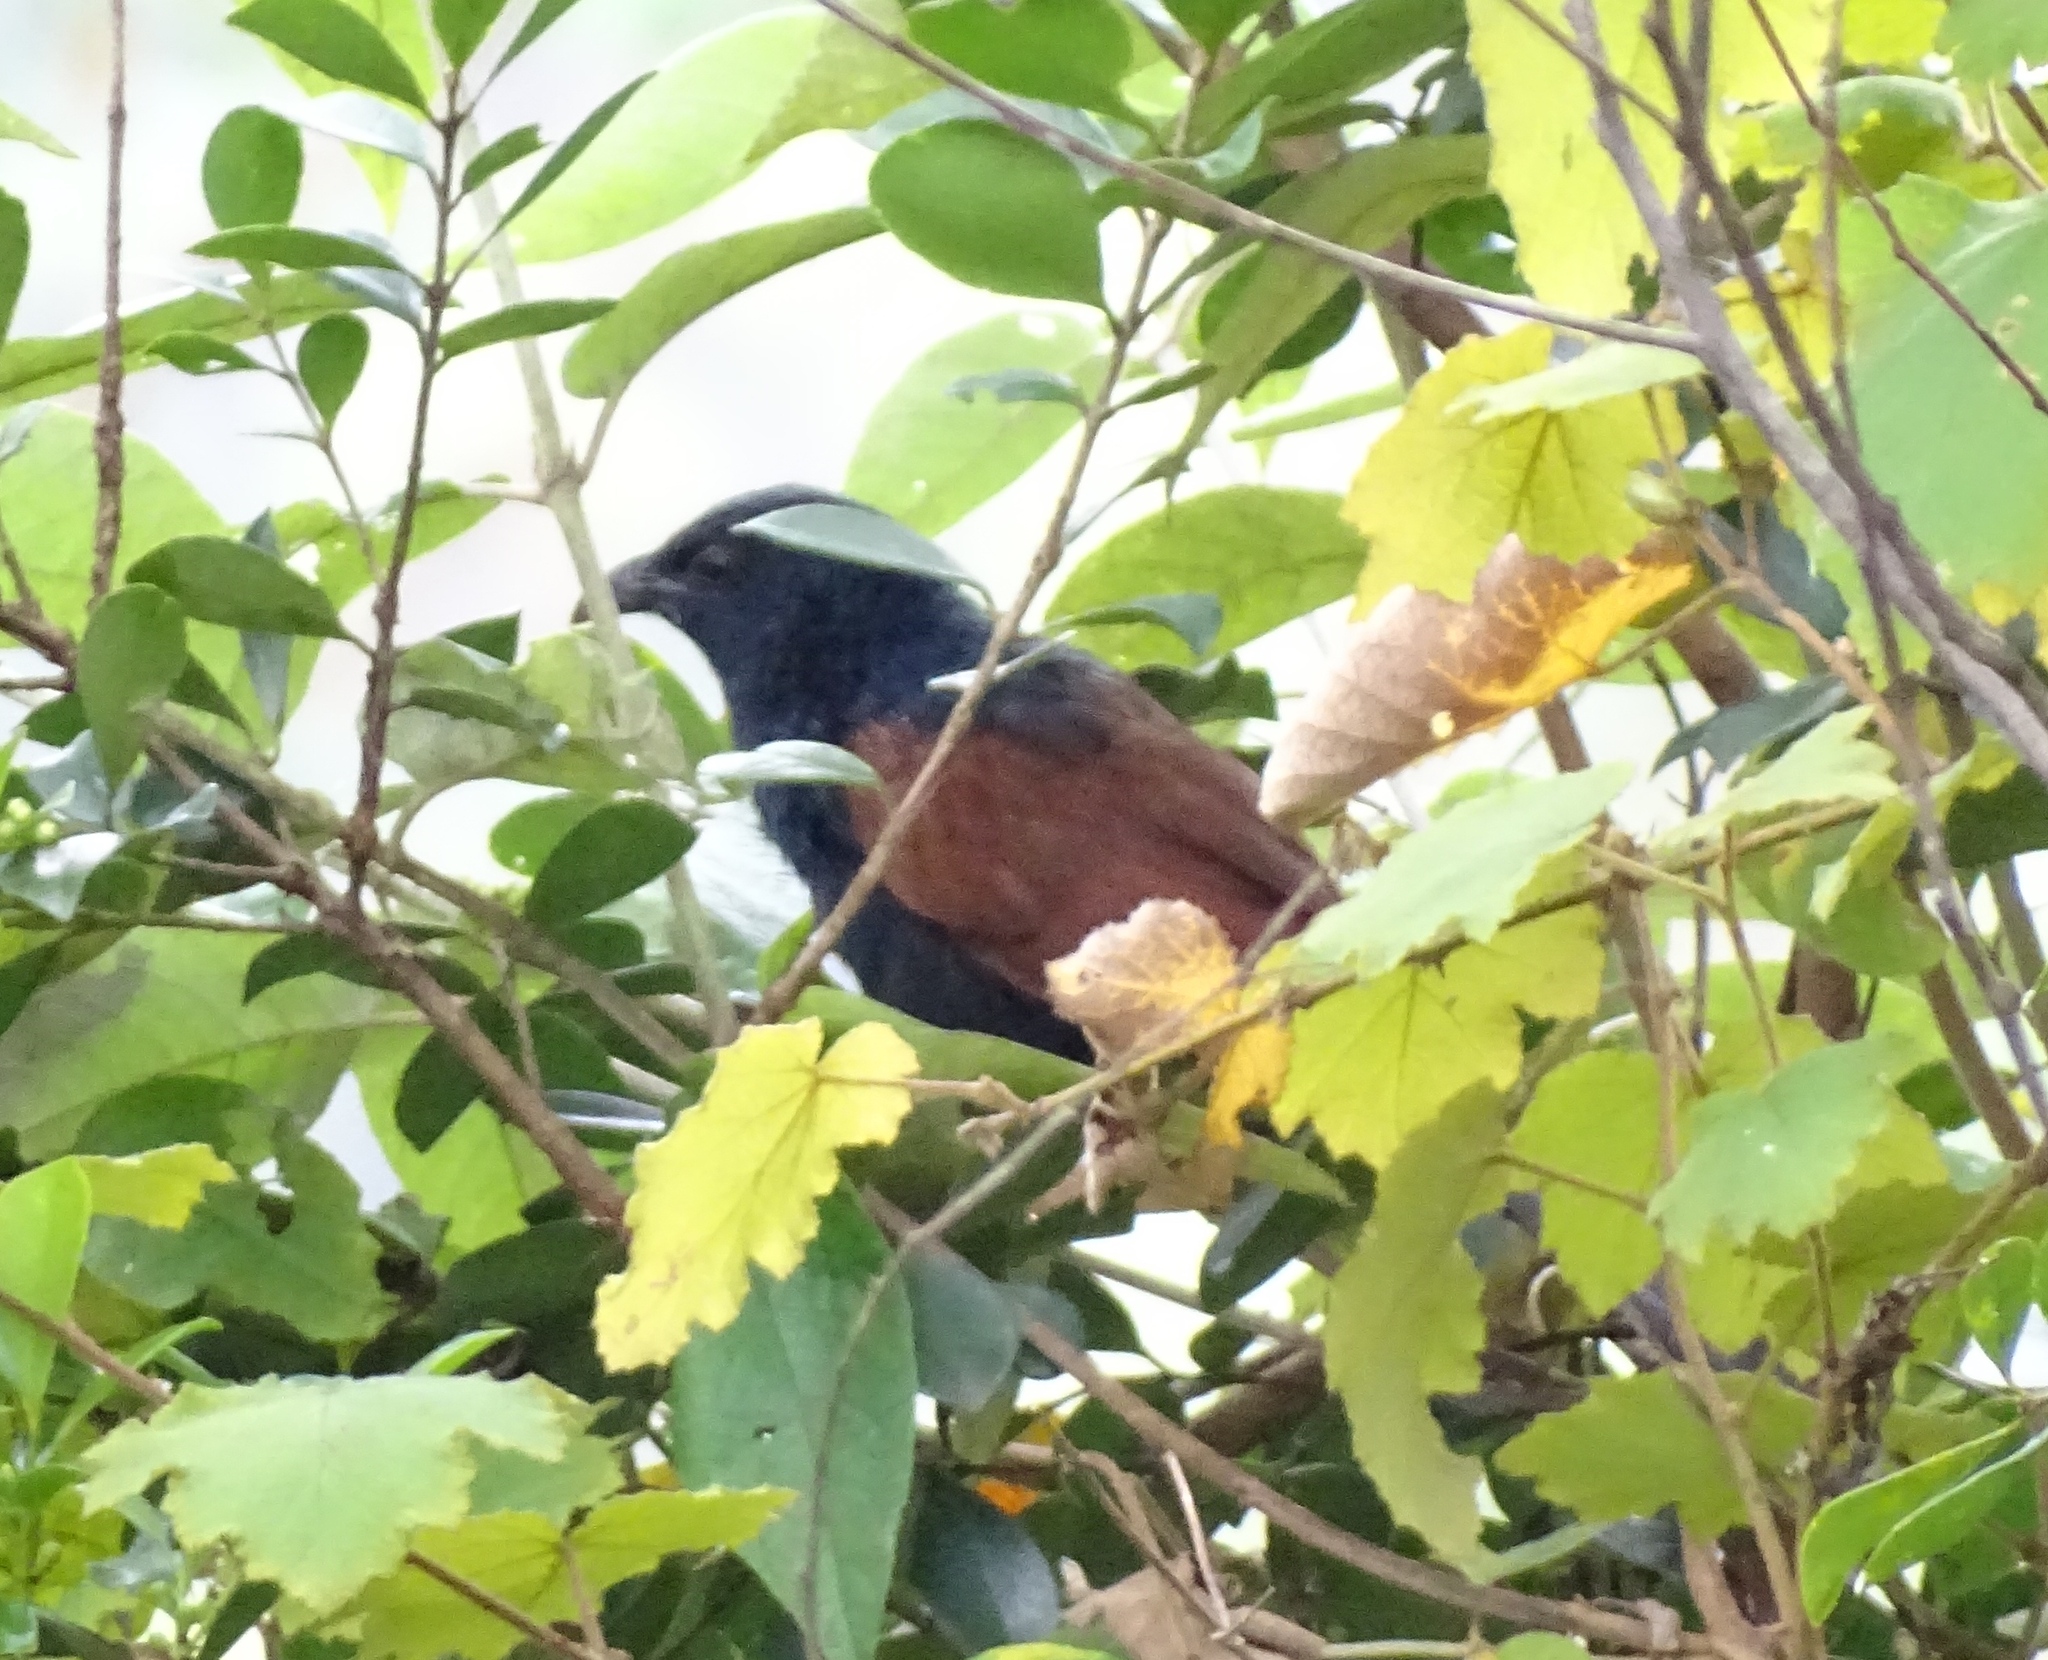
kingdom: Animalia
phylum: Chordata
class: Aves
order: Cuculiformes
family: Cuculidae
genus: Centropus
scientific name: Centropus toulou
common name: Malagasy coucal
